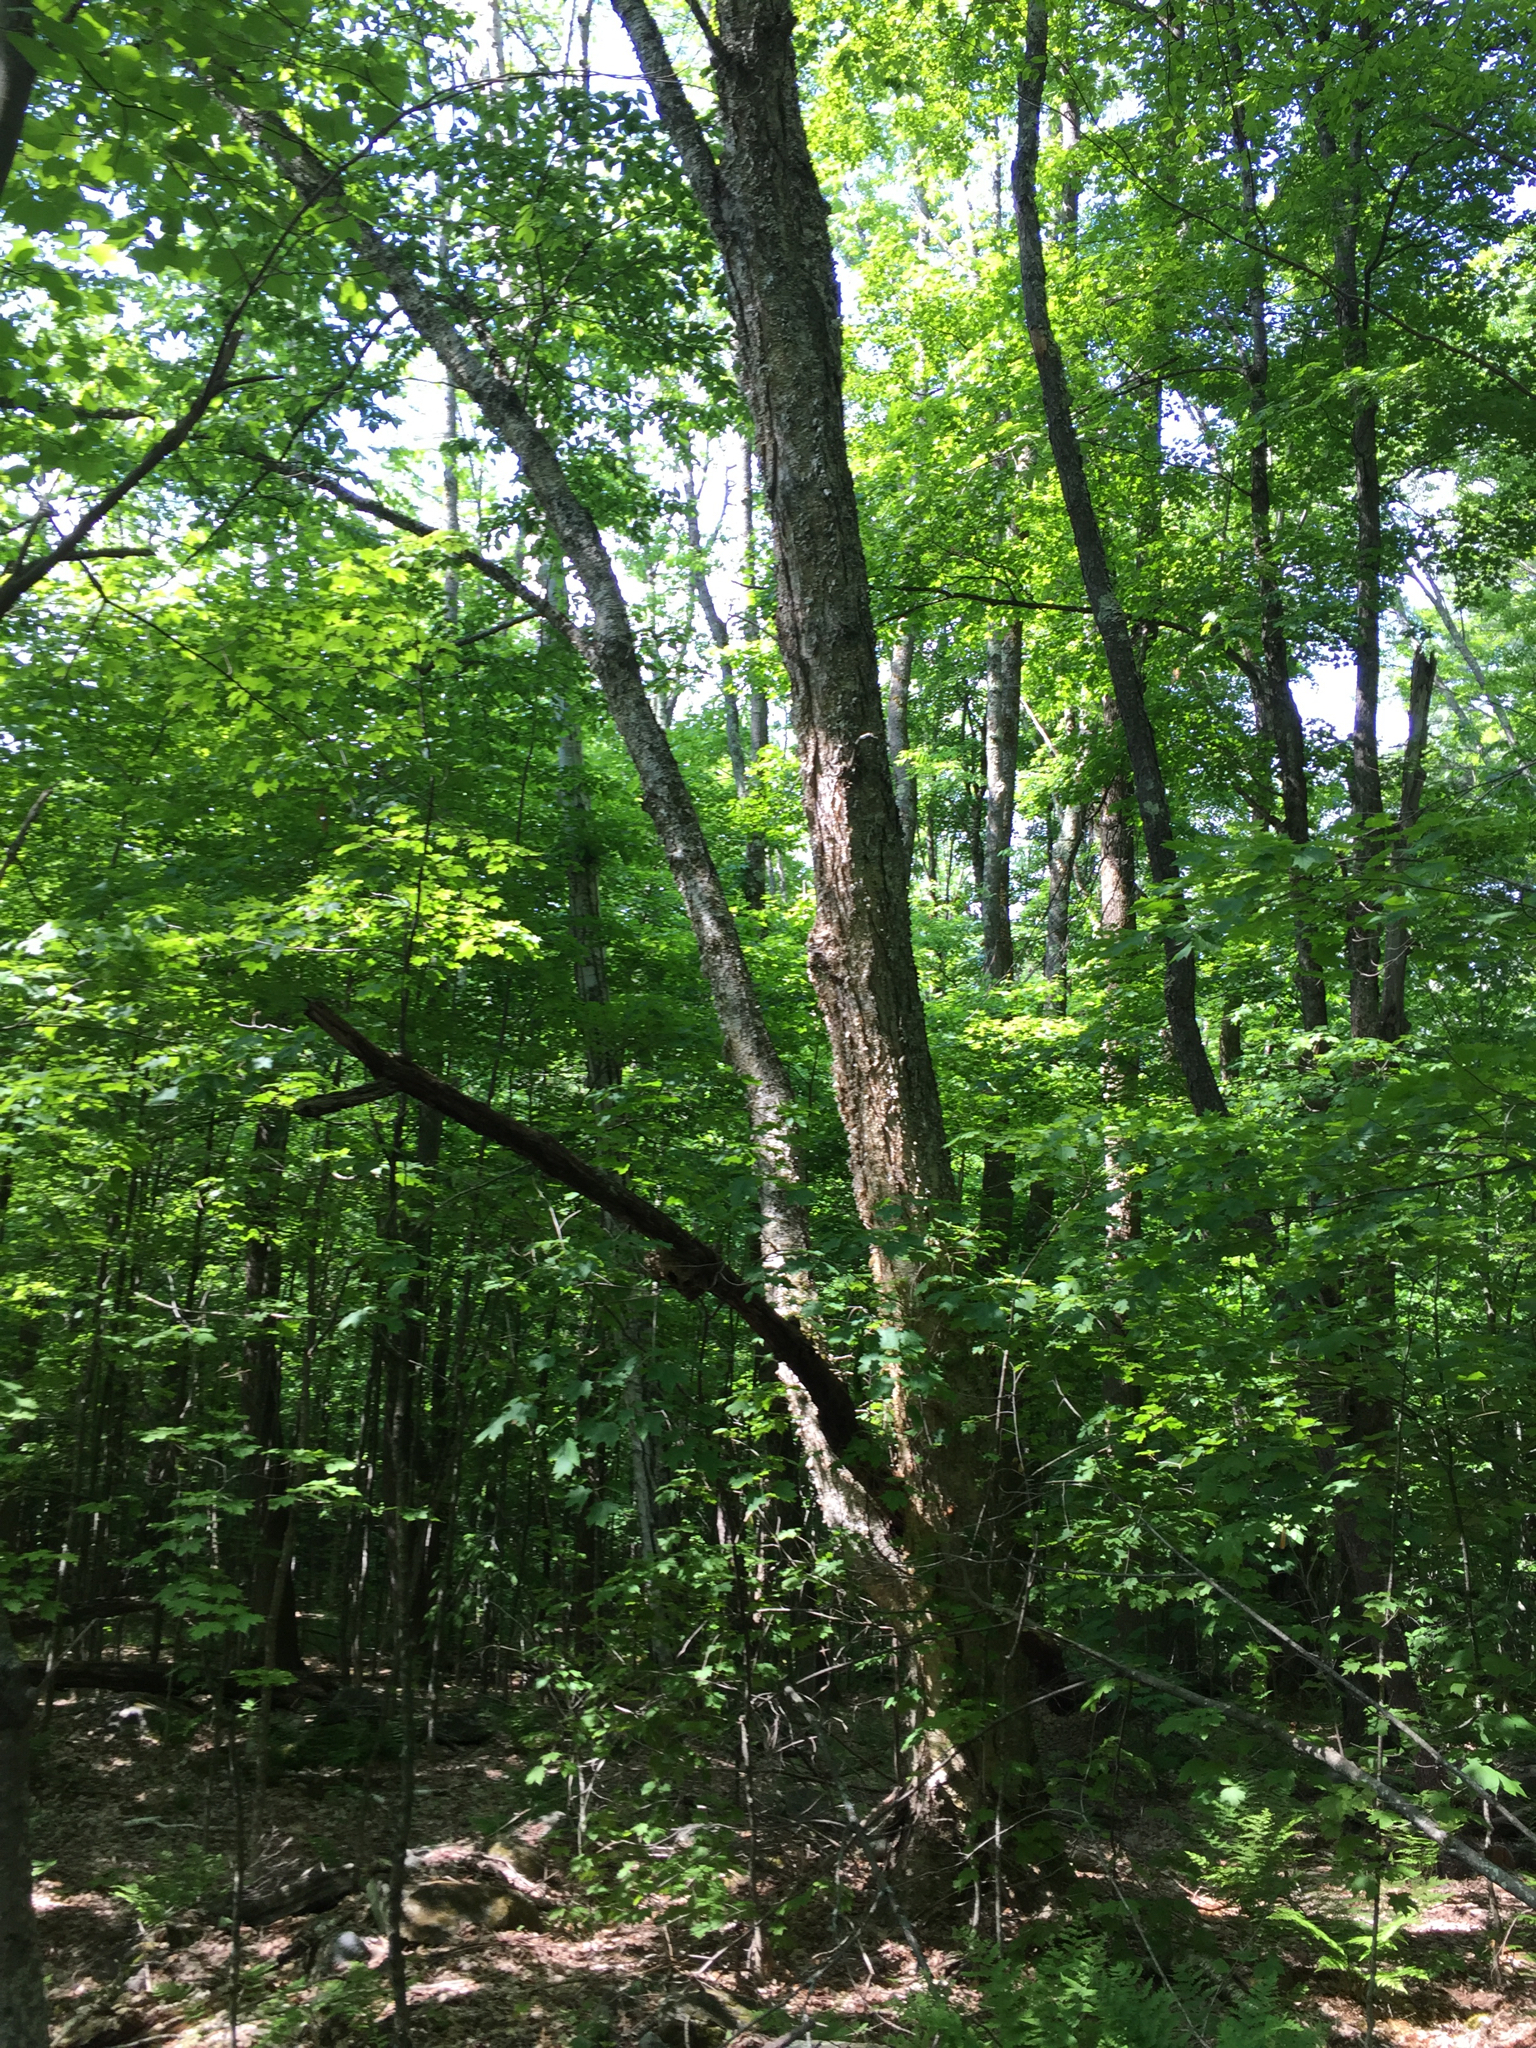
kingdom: Plantae
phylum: Tracheophyta
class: Magnoliopsida
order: Fagales
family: Betulaceae
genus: Betula
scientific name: Betula alleghaniensis
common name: Yellow birch
